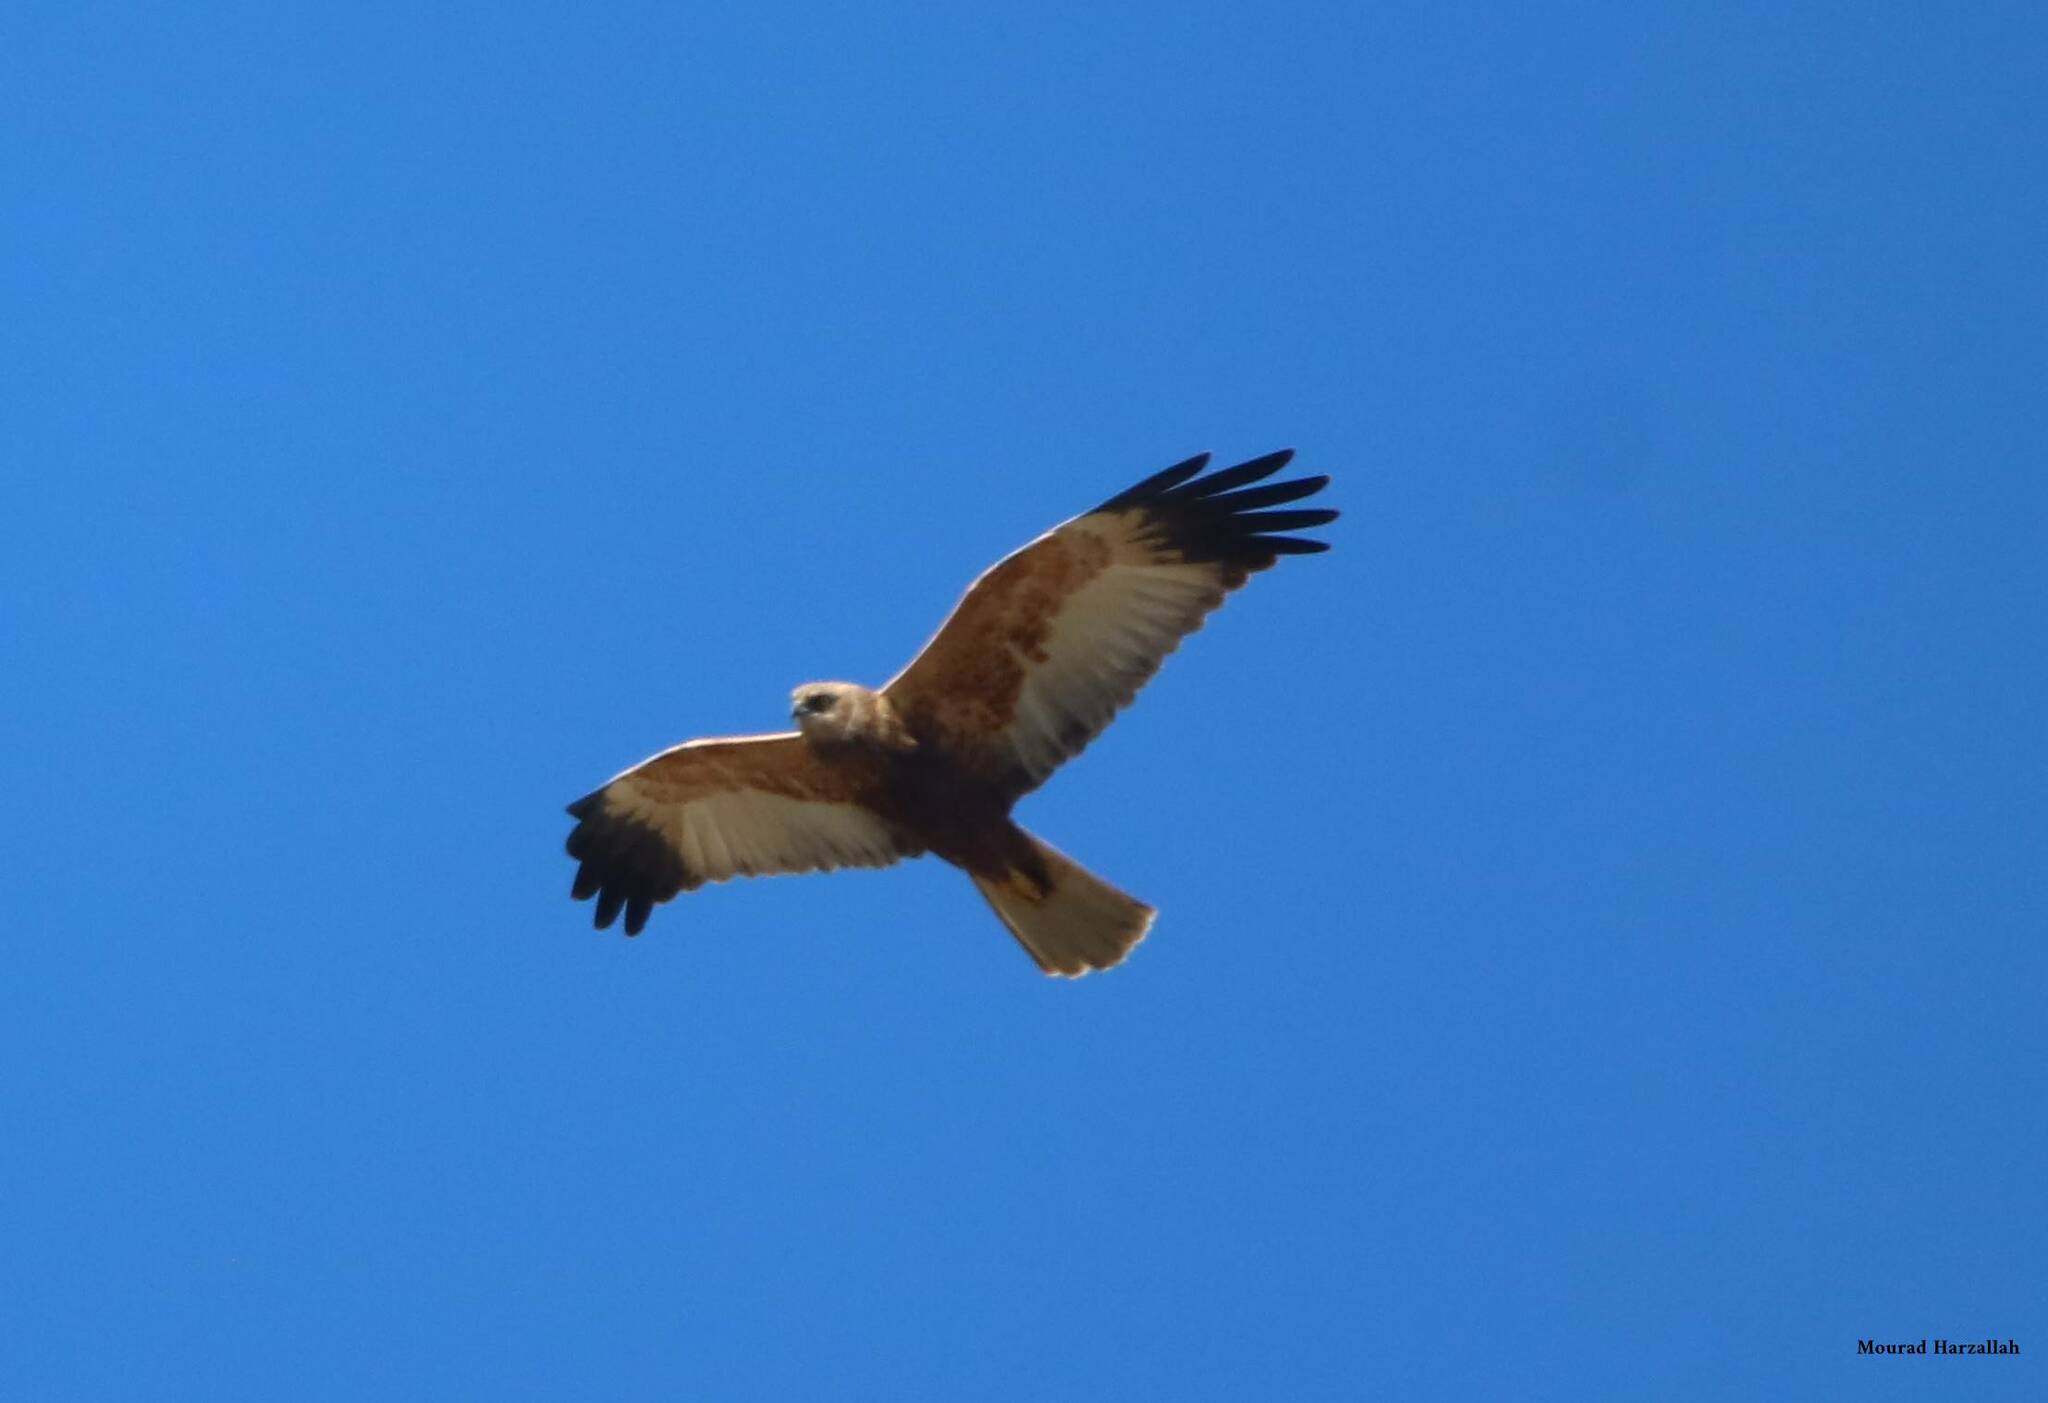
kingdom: Animalia
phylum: Chordata
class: Aves
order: Accipitriformes
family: Accipitridae
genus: Circus
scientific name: Circus aeruginosus
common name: Western marsh harrier
